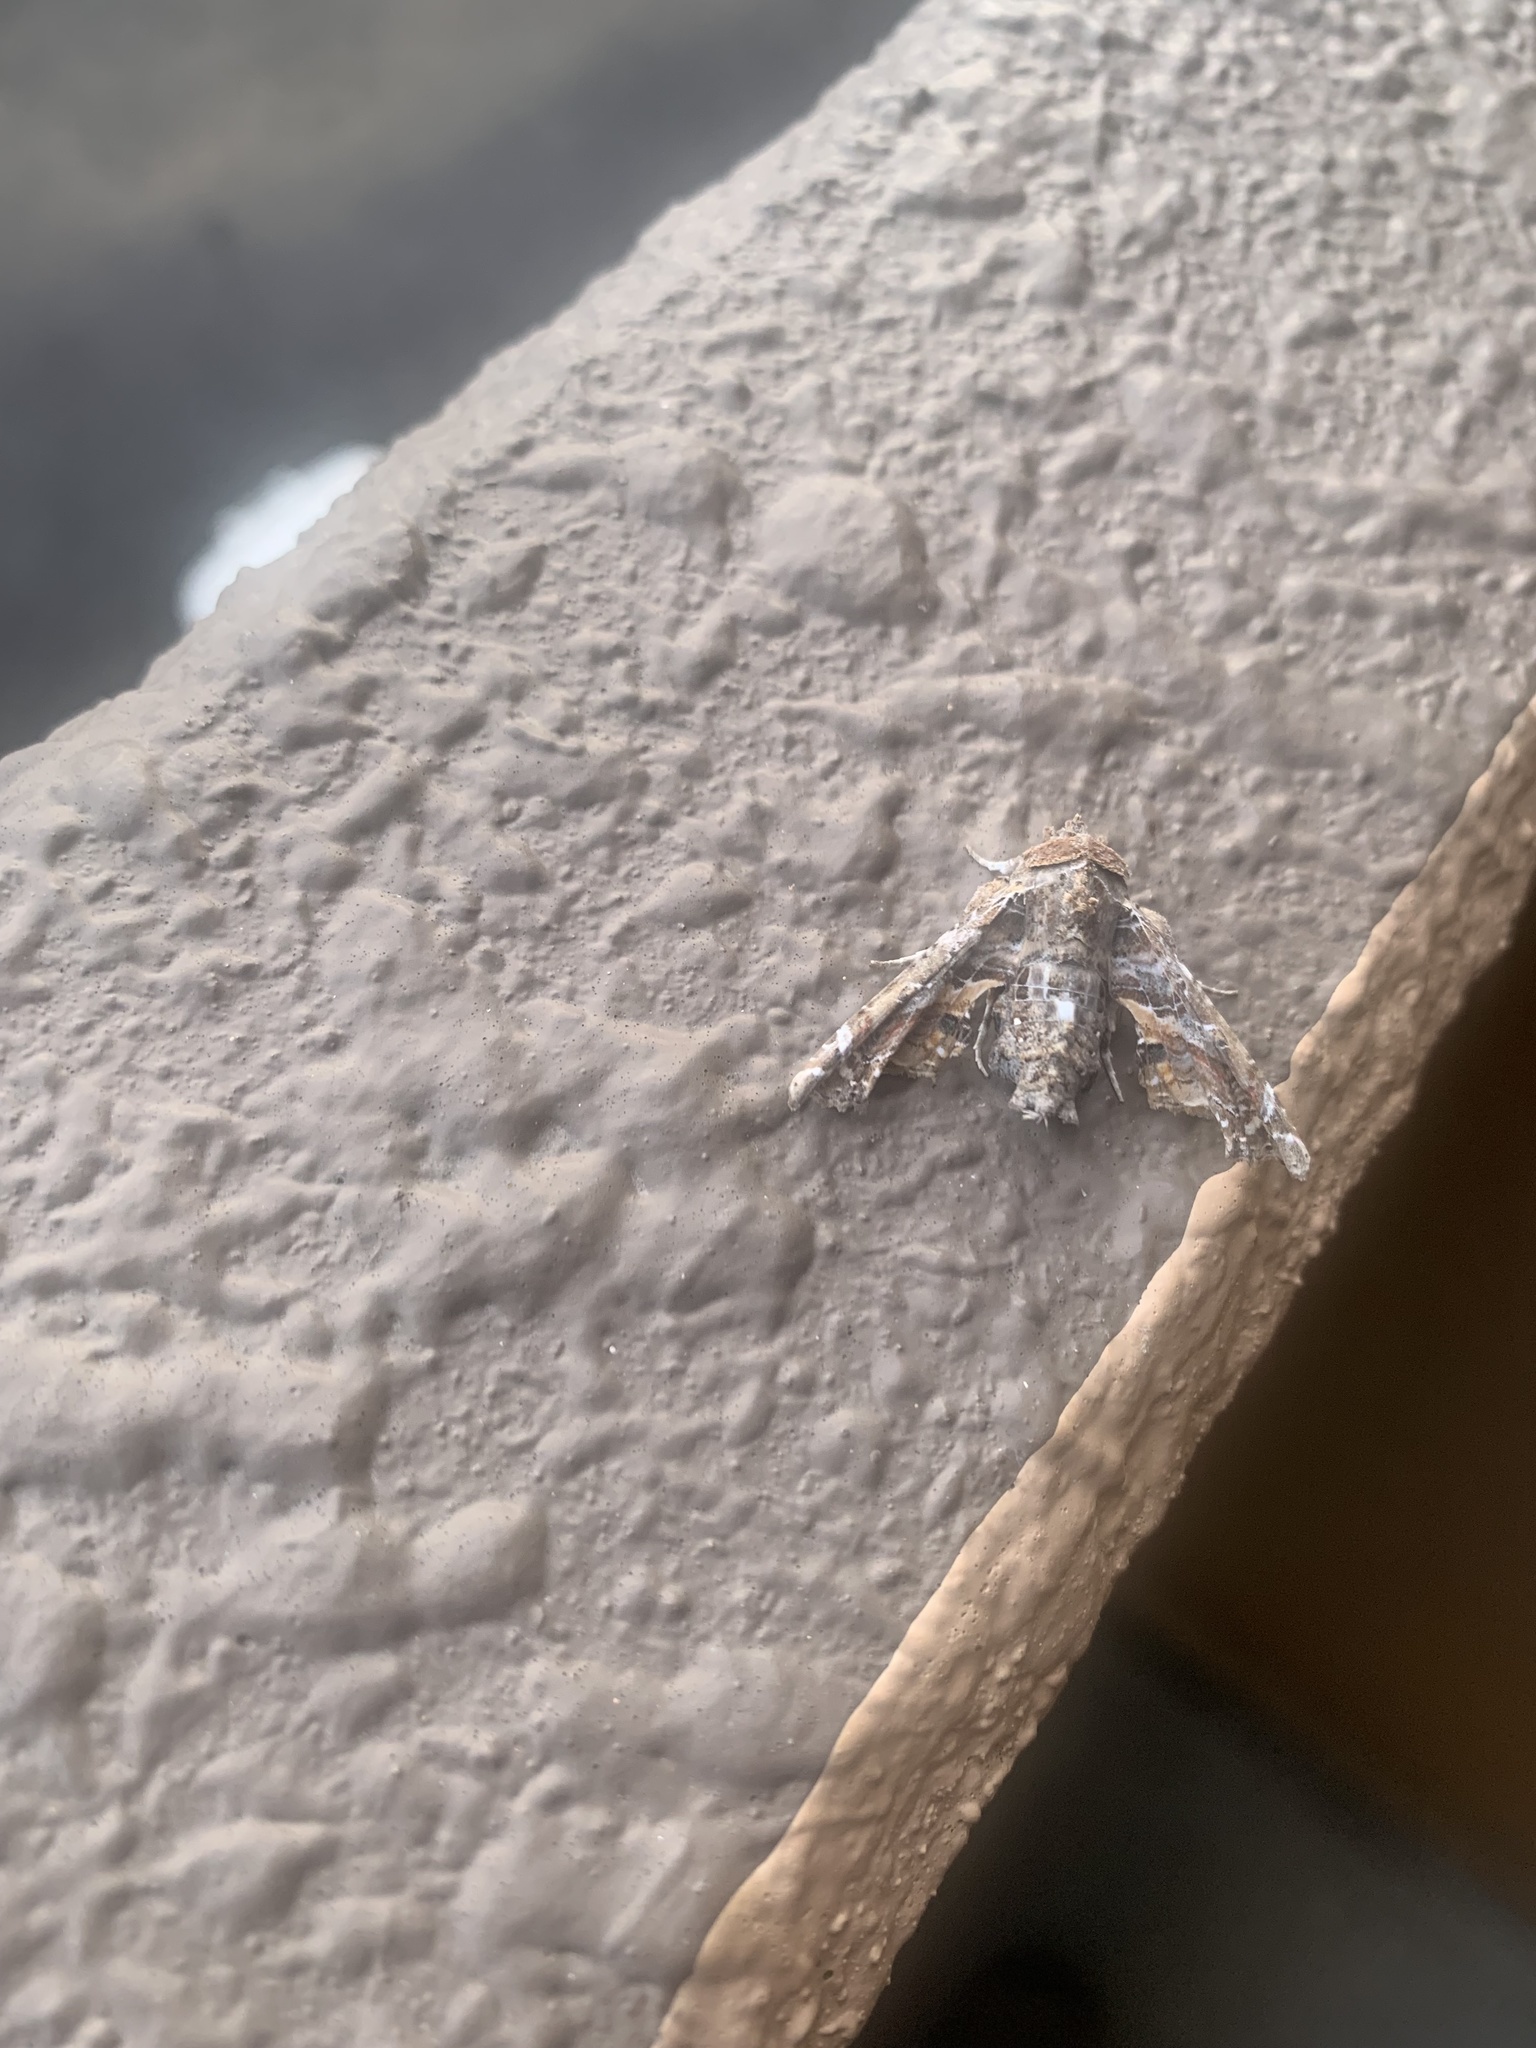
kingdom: Animalia
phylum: Arthropoda
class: Insecta
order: Lepidoptera
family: Euteliidae
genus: Eutelia
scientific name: Eutelia geyeri
